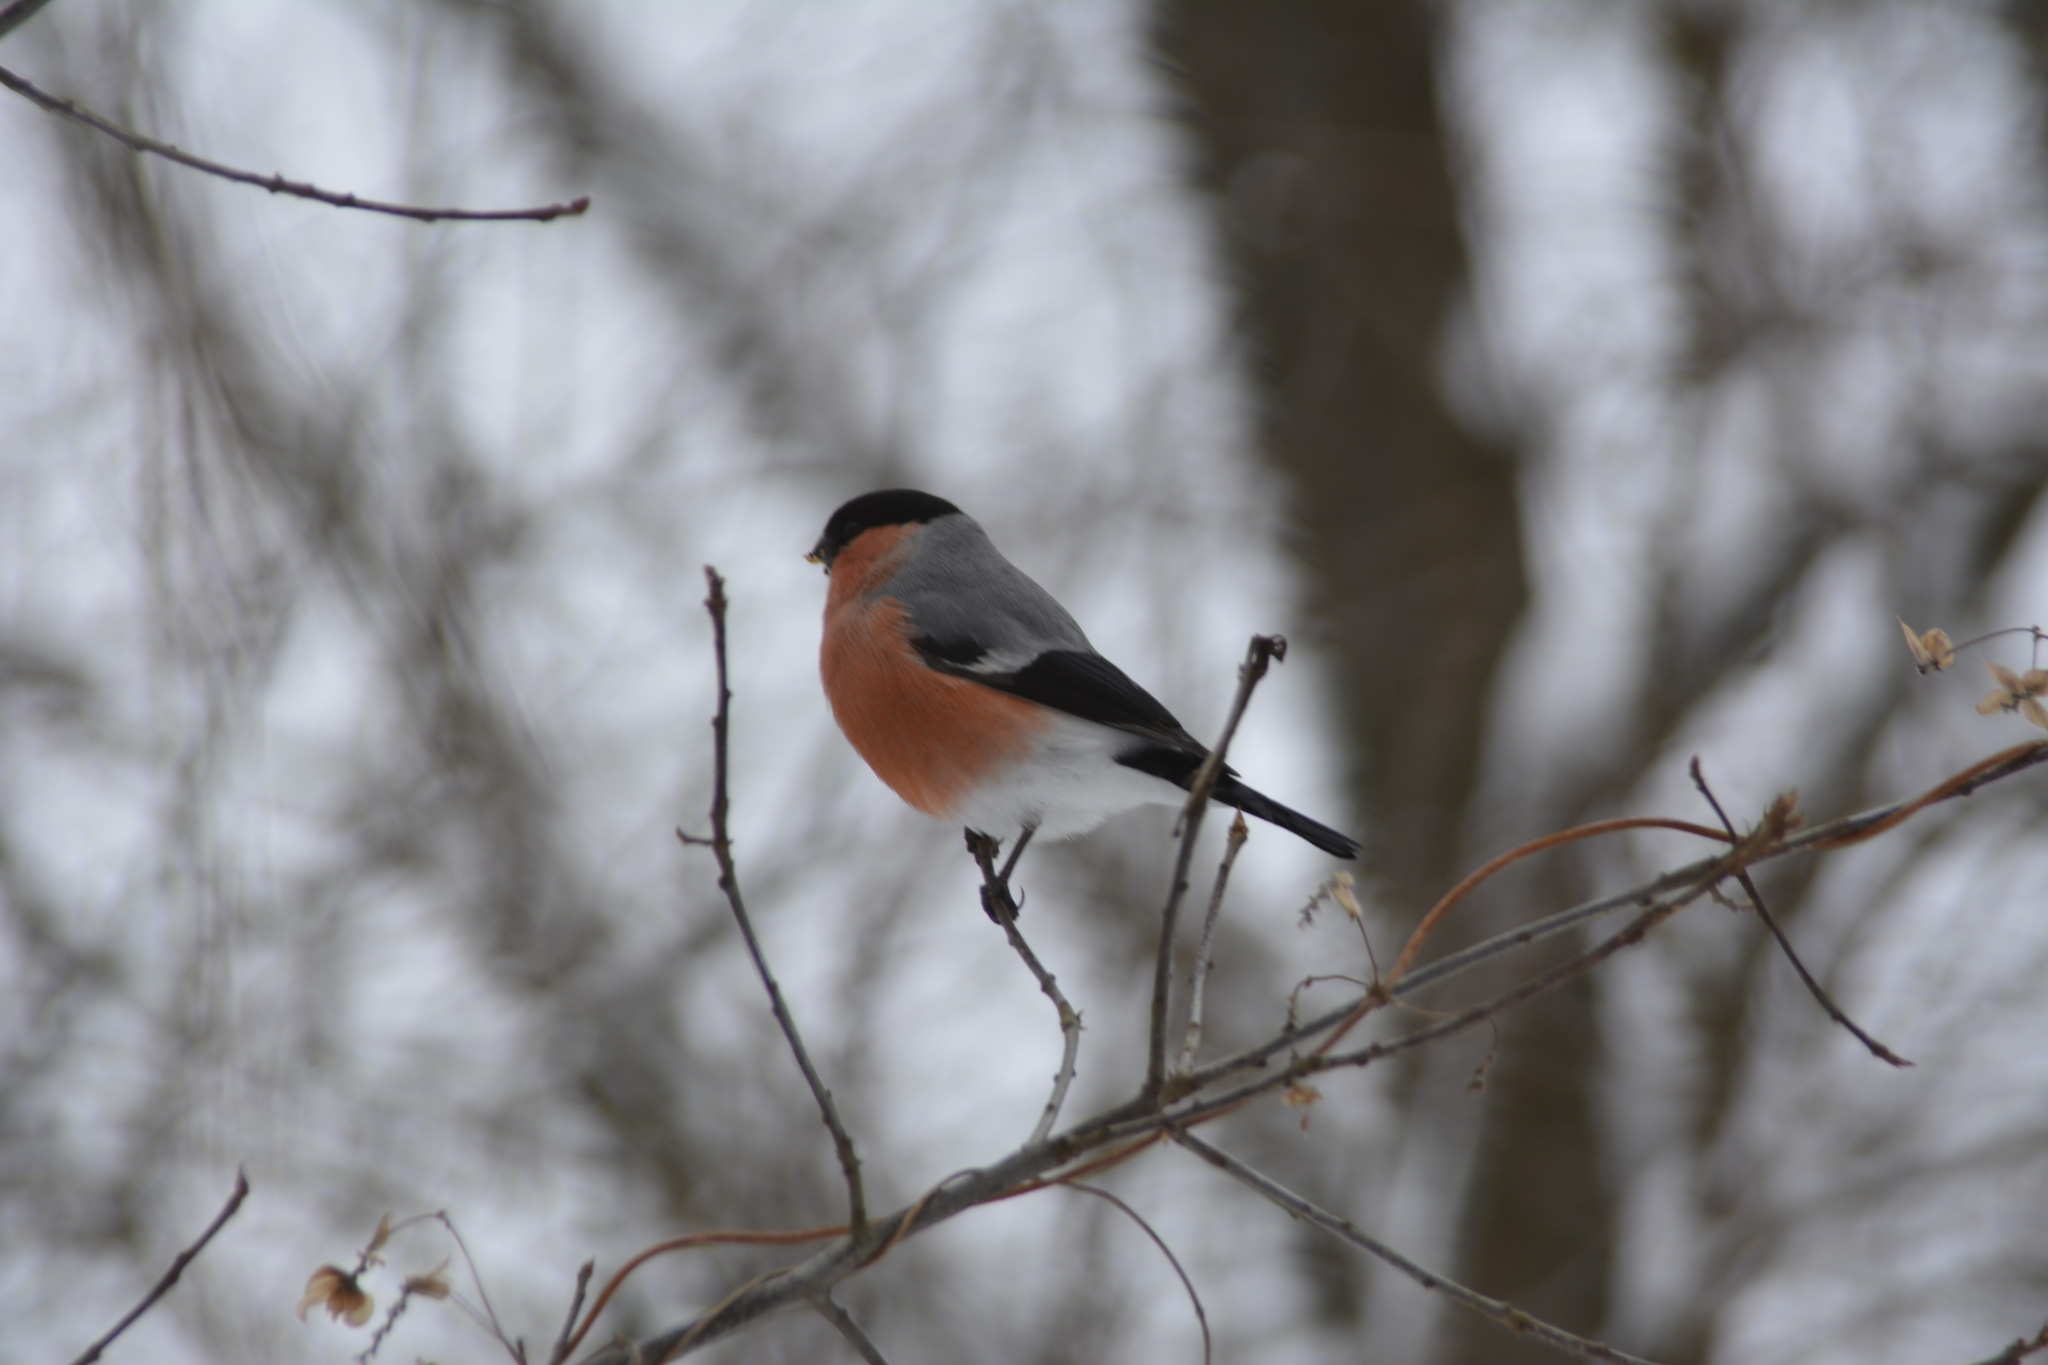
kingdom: Animalia
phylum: Chordata
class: Aves
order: Passeriformes
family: Fringillidae
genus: Pyrrhula
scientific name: Pyrrhula pyrrhula
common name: Eurasian bullfinch
